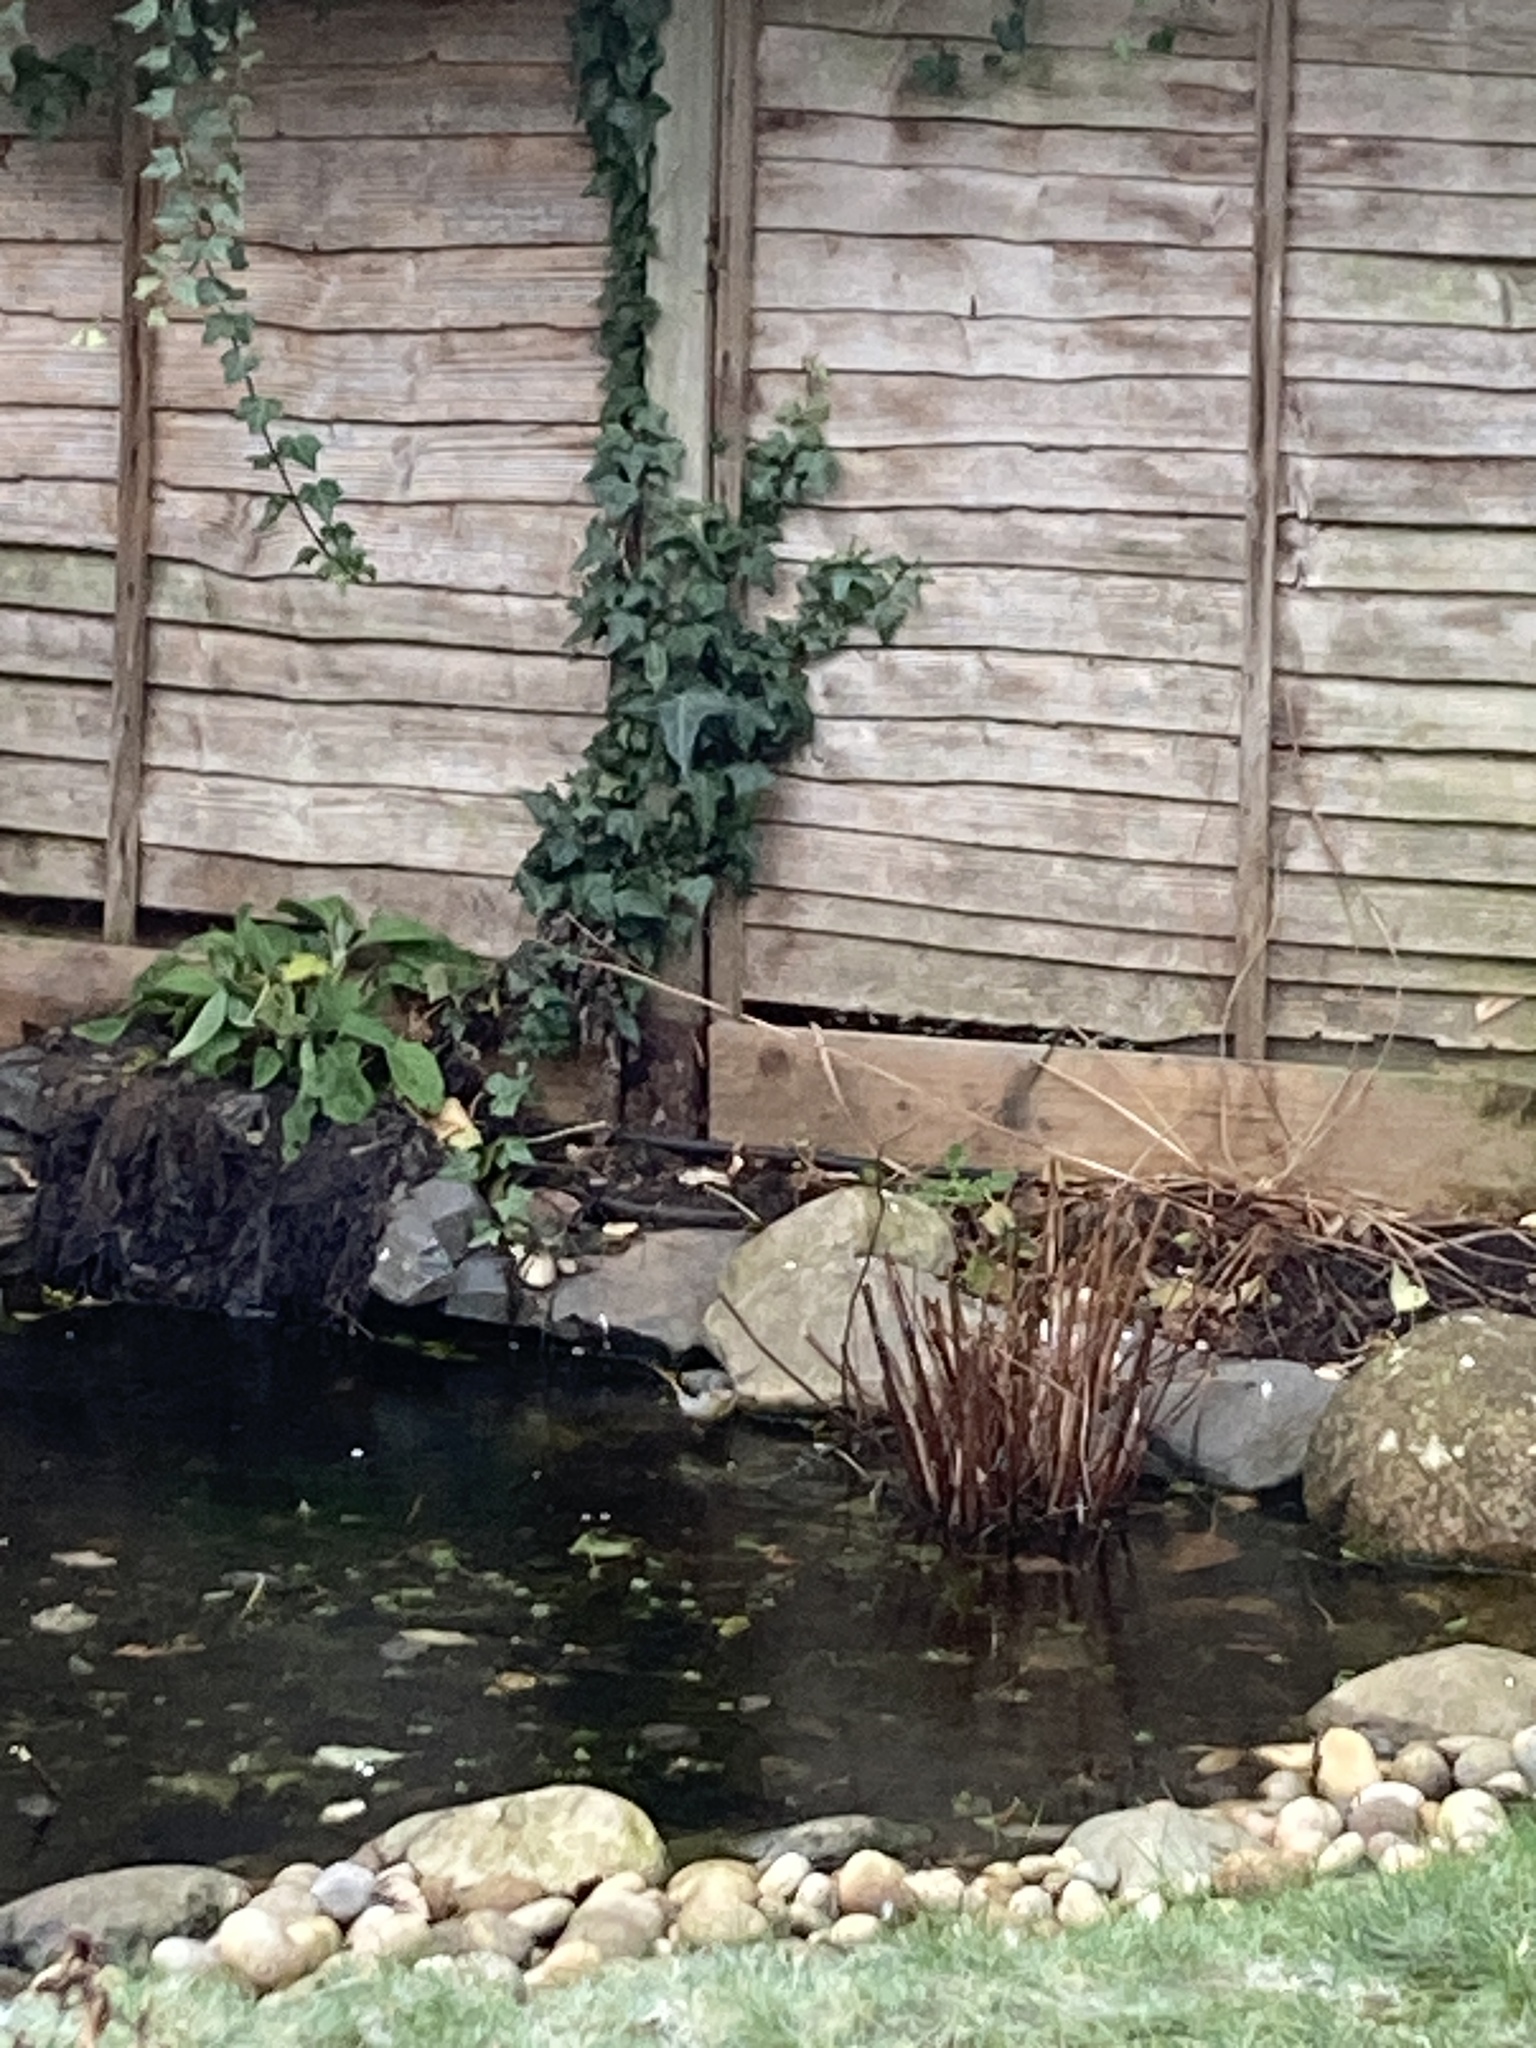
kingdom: Animalia
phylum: Chordata
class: Aves
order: Passeriformes
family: Motacillidae
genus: Motacilla
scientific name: Motacilla cinerea
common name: Grey wagtail
